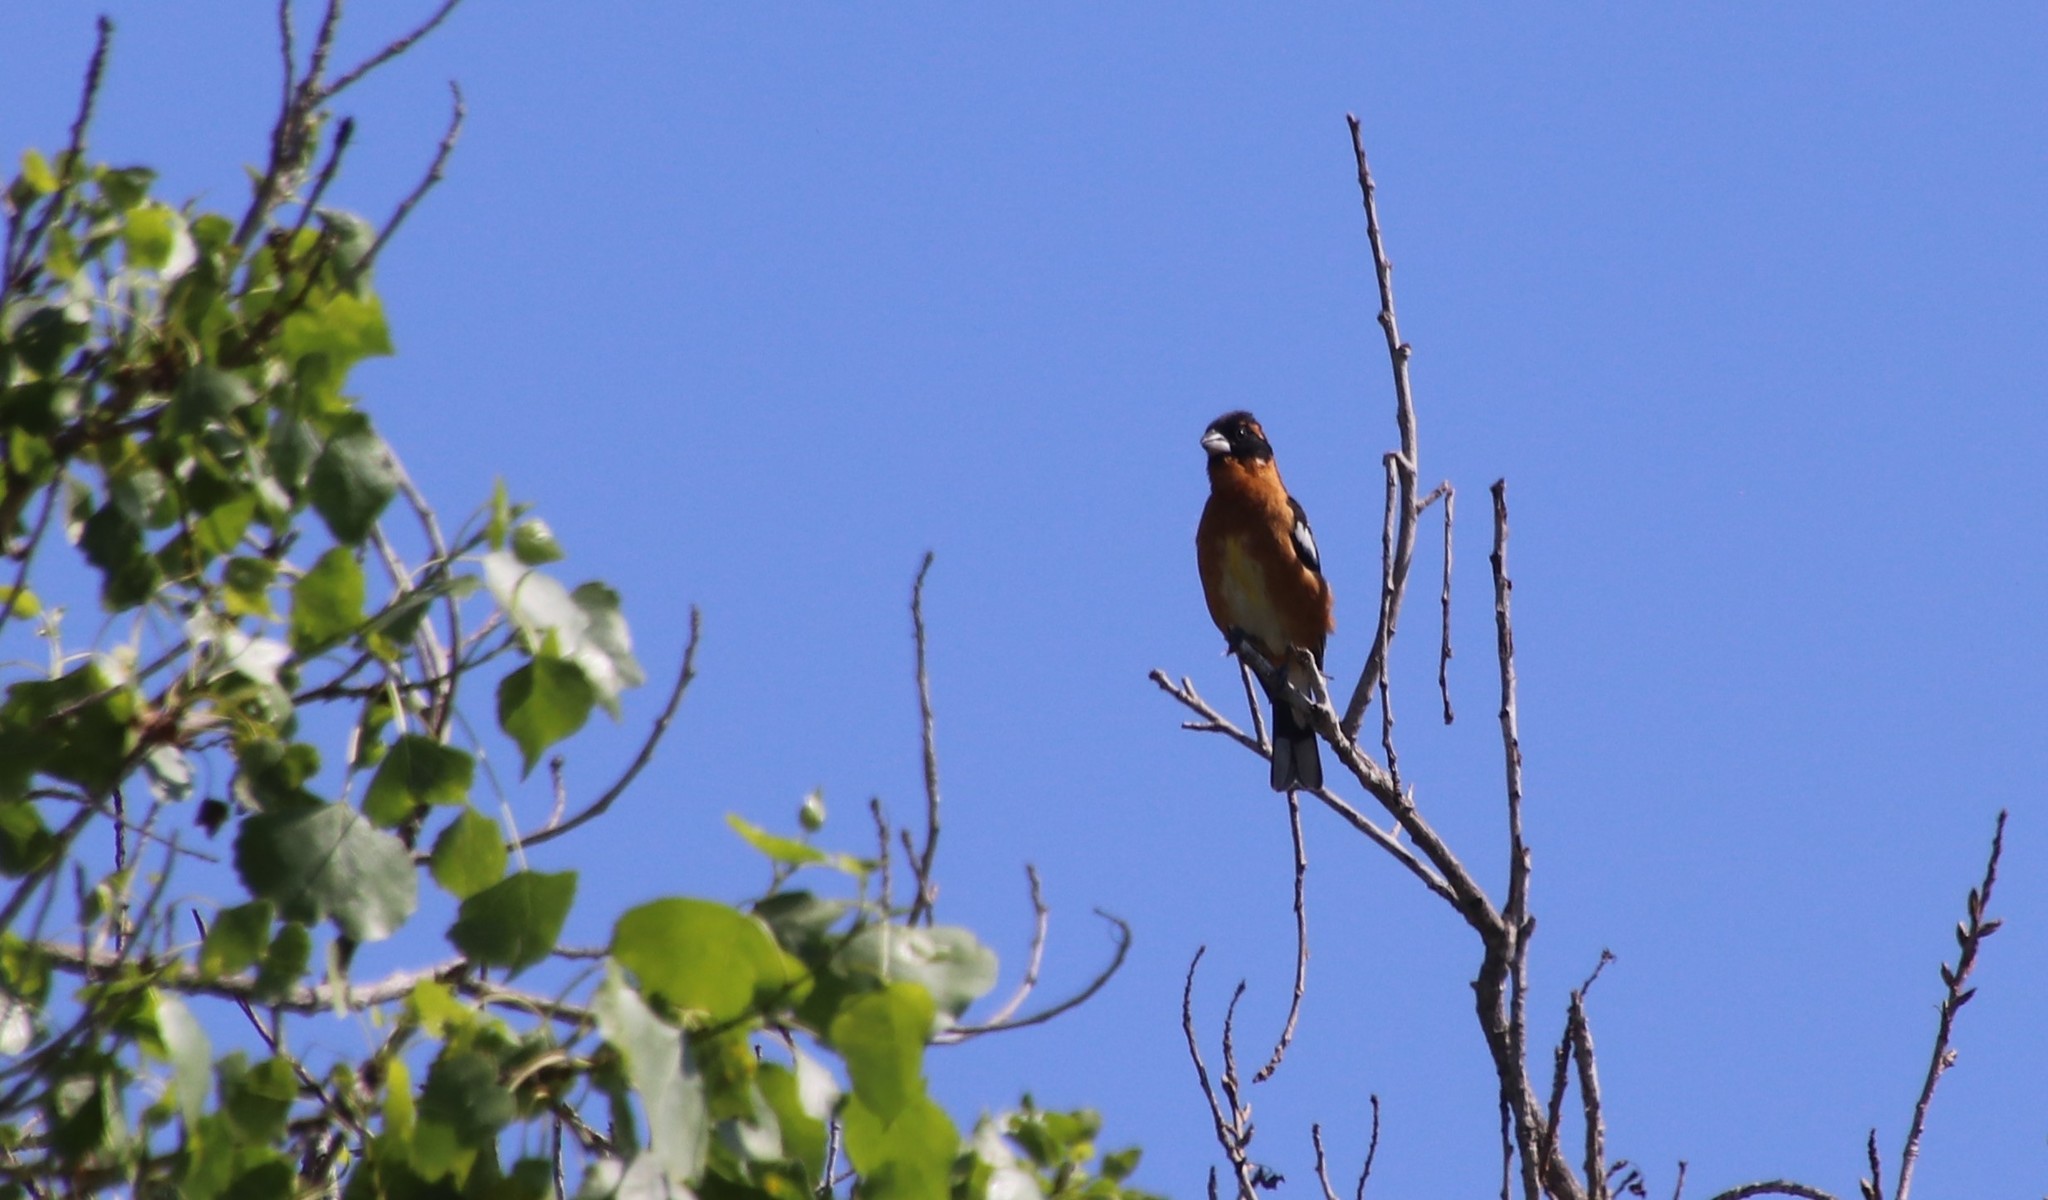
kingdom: Animalia
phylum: Chordata
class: Aves
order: Passeriformes
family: Cardinalidae
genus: Pheucticus
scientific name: Pheucticus melanocephalus
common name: Black-headed grosbeak
